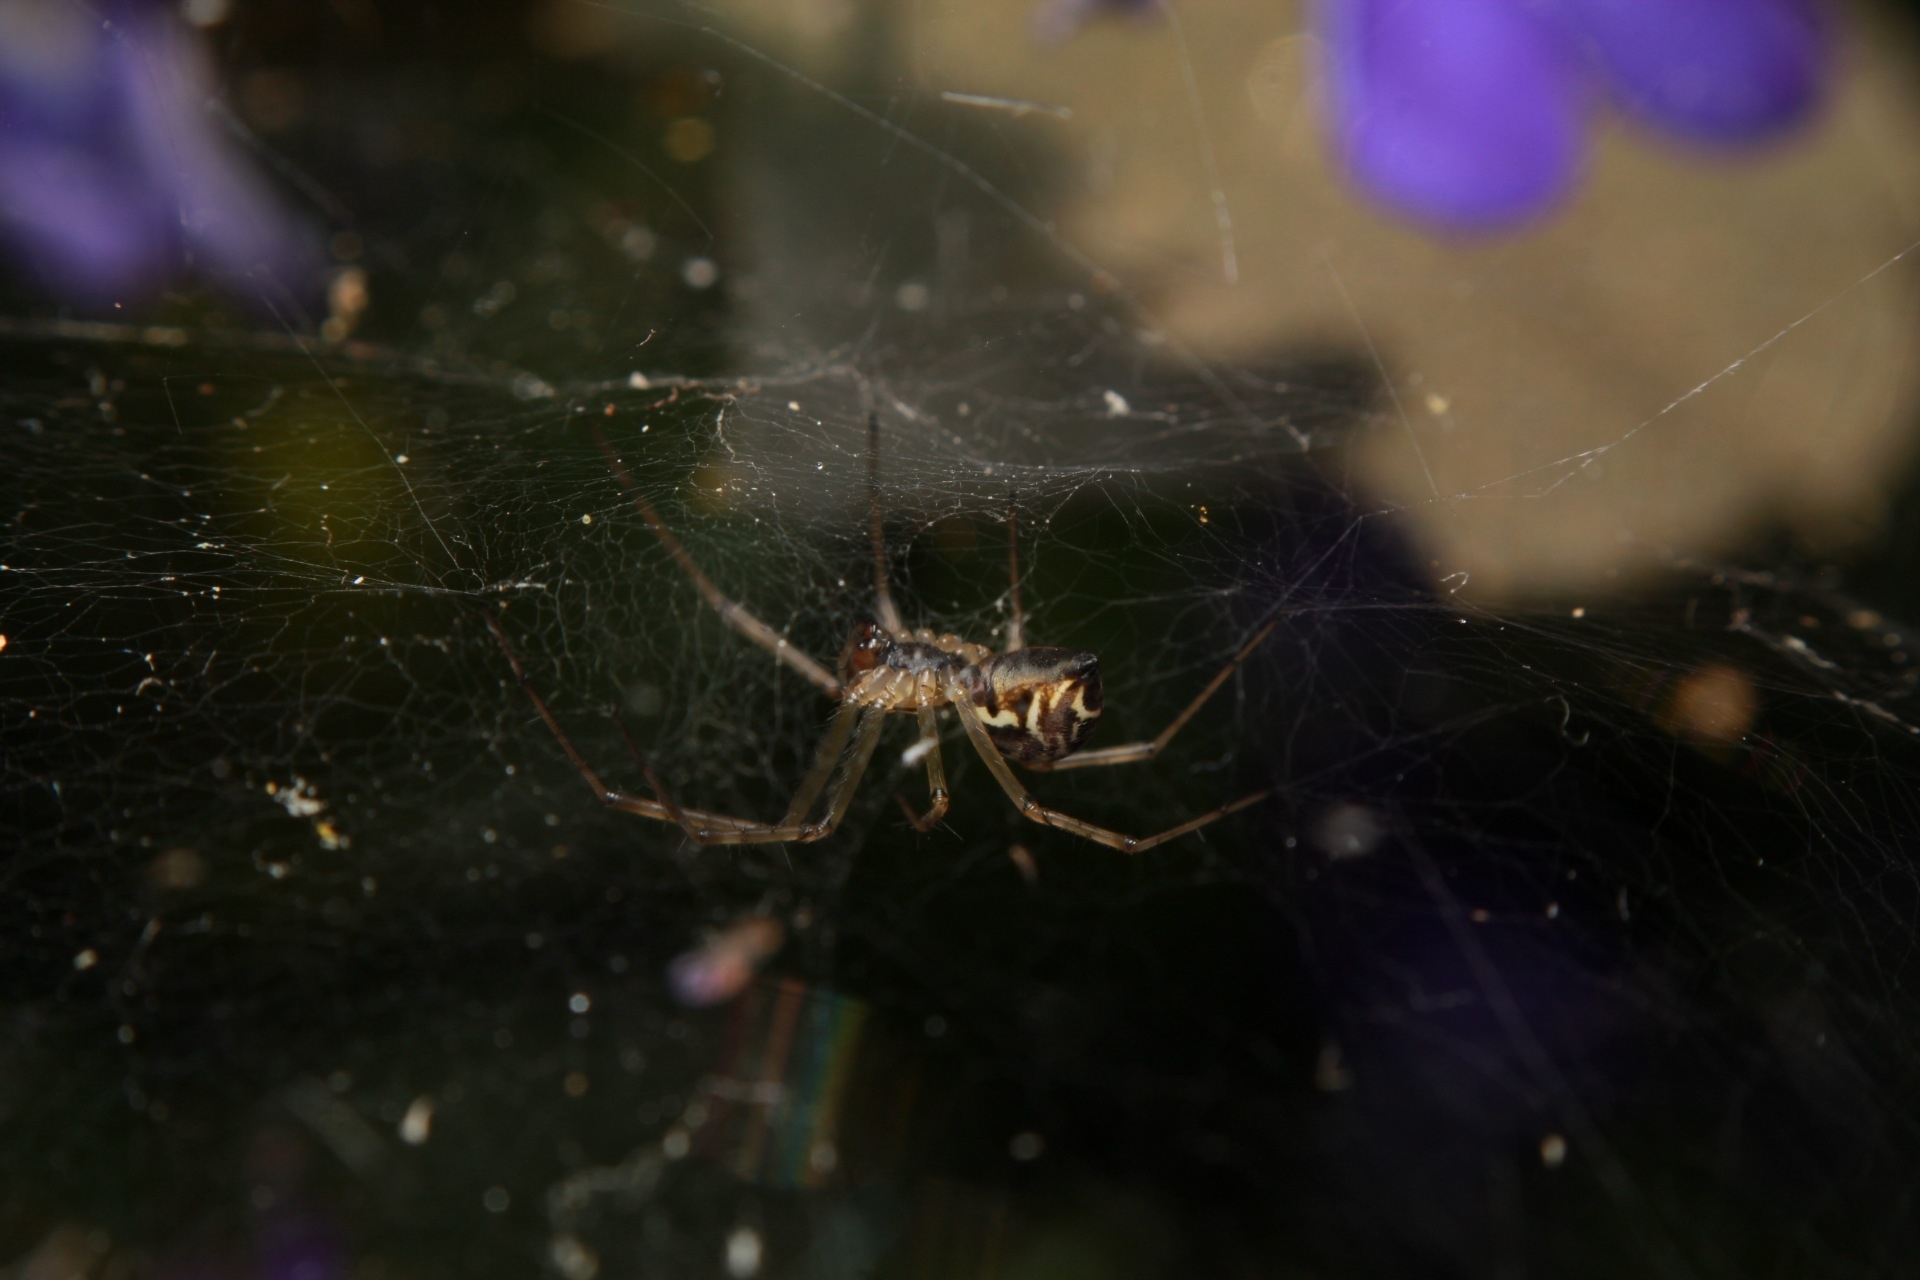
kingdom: Animalia
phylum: Arthropoda
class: Arachnida
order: Araneae
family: Linyphiidae
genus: Linyphia
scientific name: Linyphia triangularis
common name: Money spider
